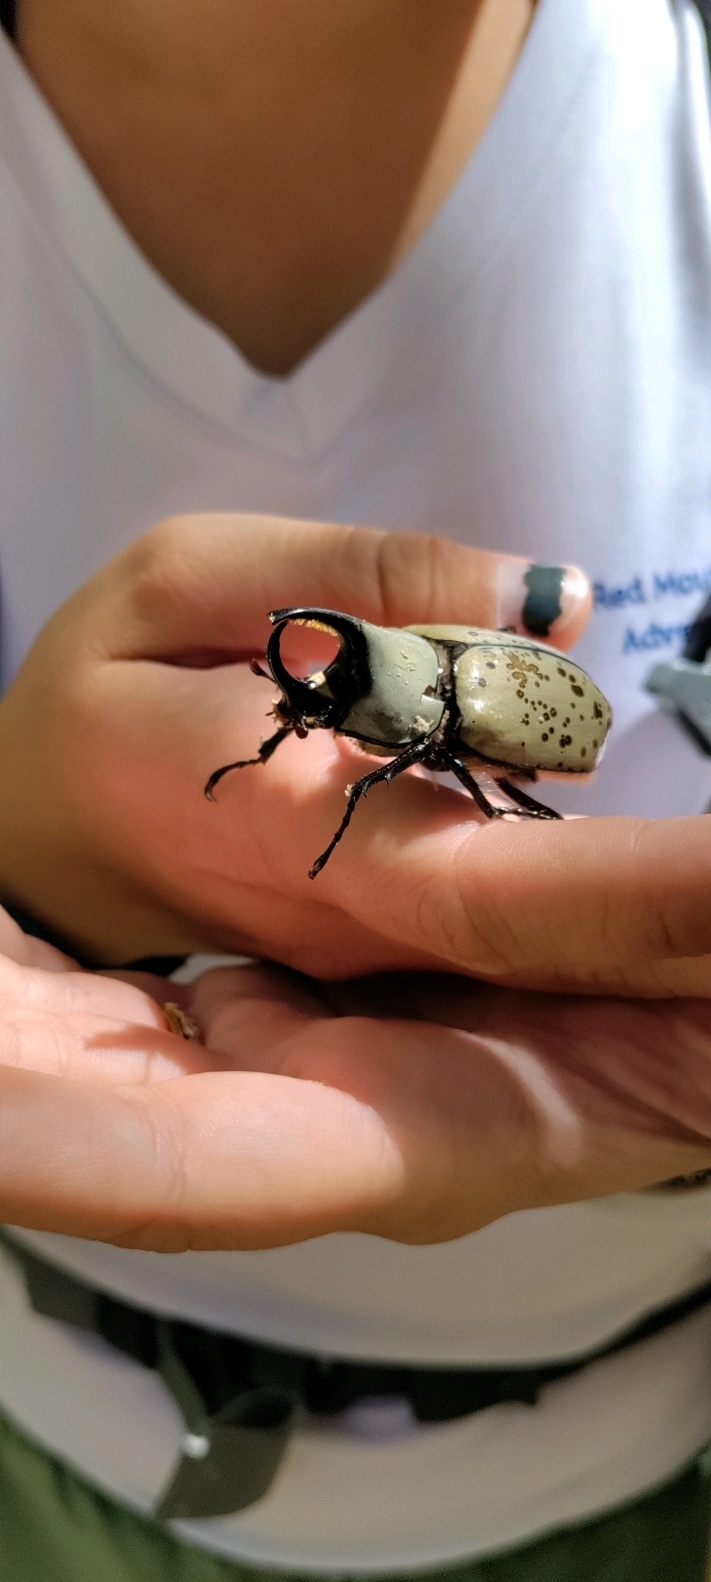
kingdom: Animalia
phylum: Arthropoda
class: Insecta
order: Coleoptera
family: Scarabaeidae
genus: Dynastes
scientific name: Dynastes grantii
